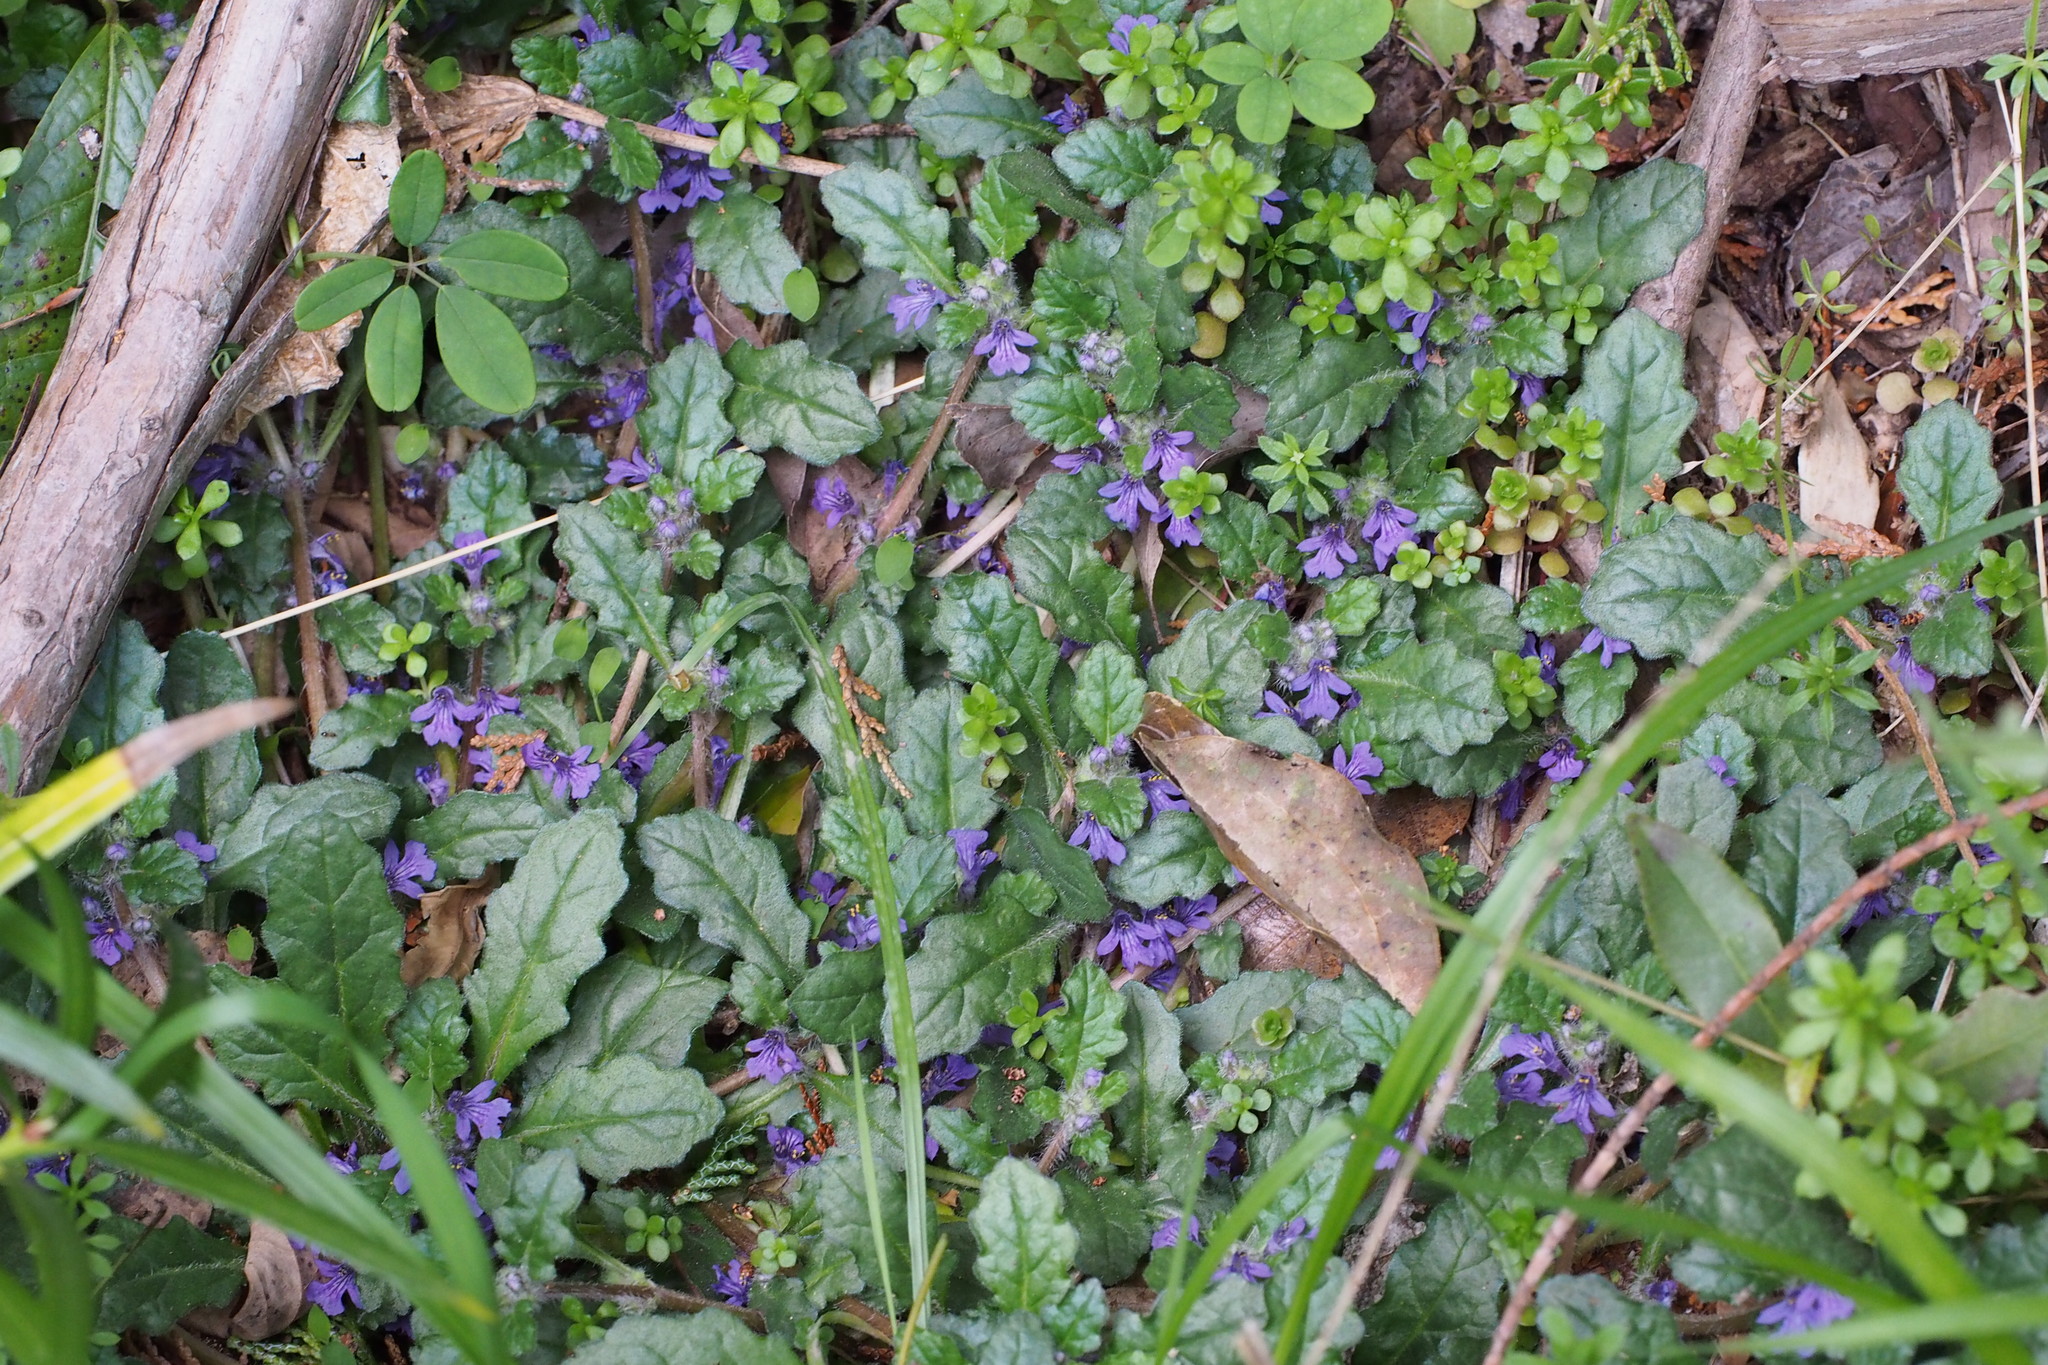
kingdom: Plantae
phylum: Tracheophyta
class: Magnoliopsida
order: Lamiales
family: Lamiaceae
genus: Ajuga
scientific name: Ajuga decumbens
